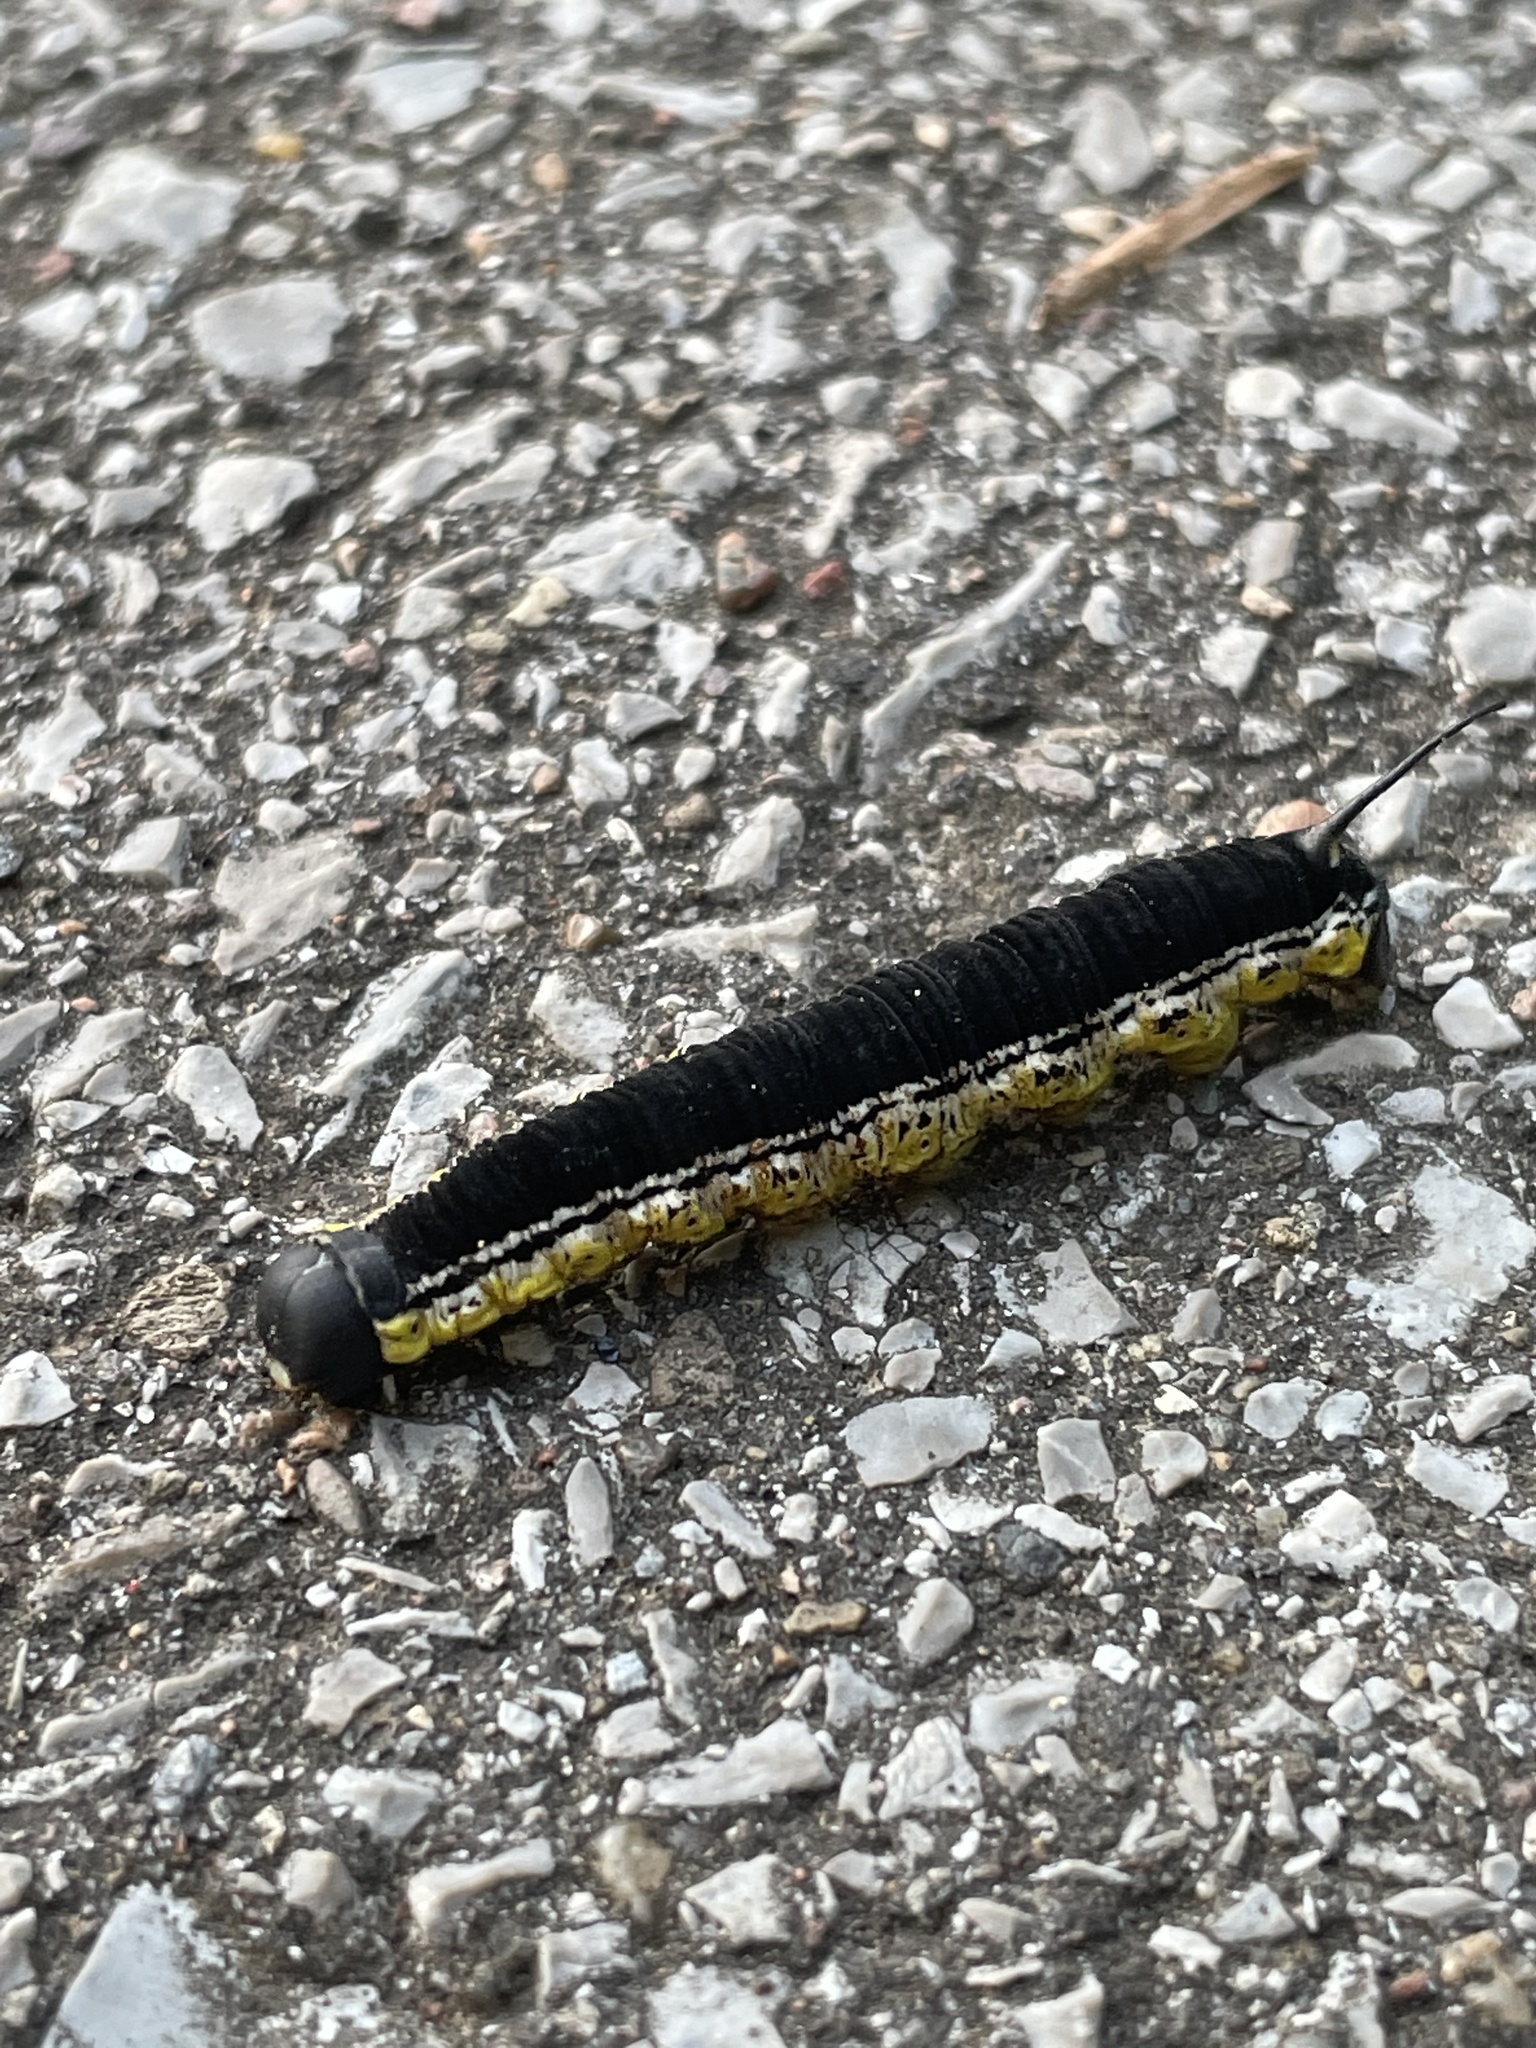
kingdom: Animalia
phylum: Arthropoda
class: Insecta
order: Lepidoptera
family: Sphingidae
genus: Ceratomia
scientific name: Ceratomia catalpae
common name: Catalpa hornworm
